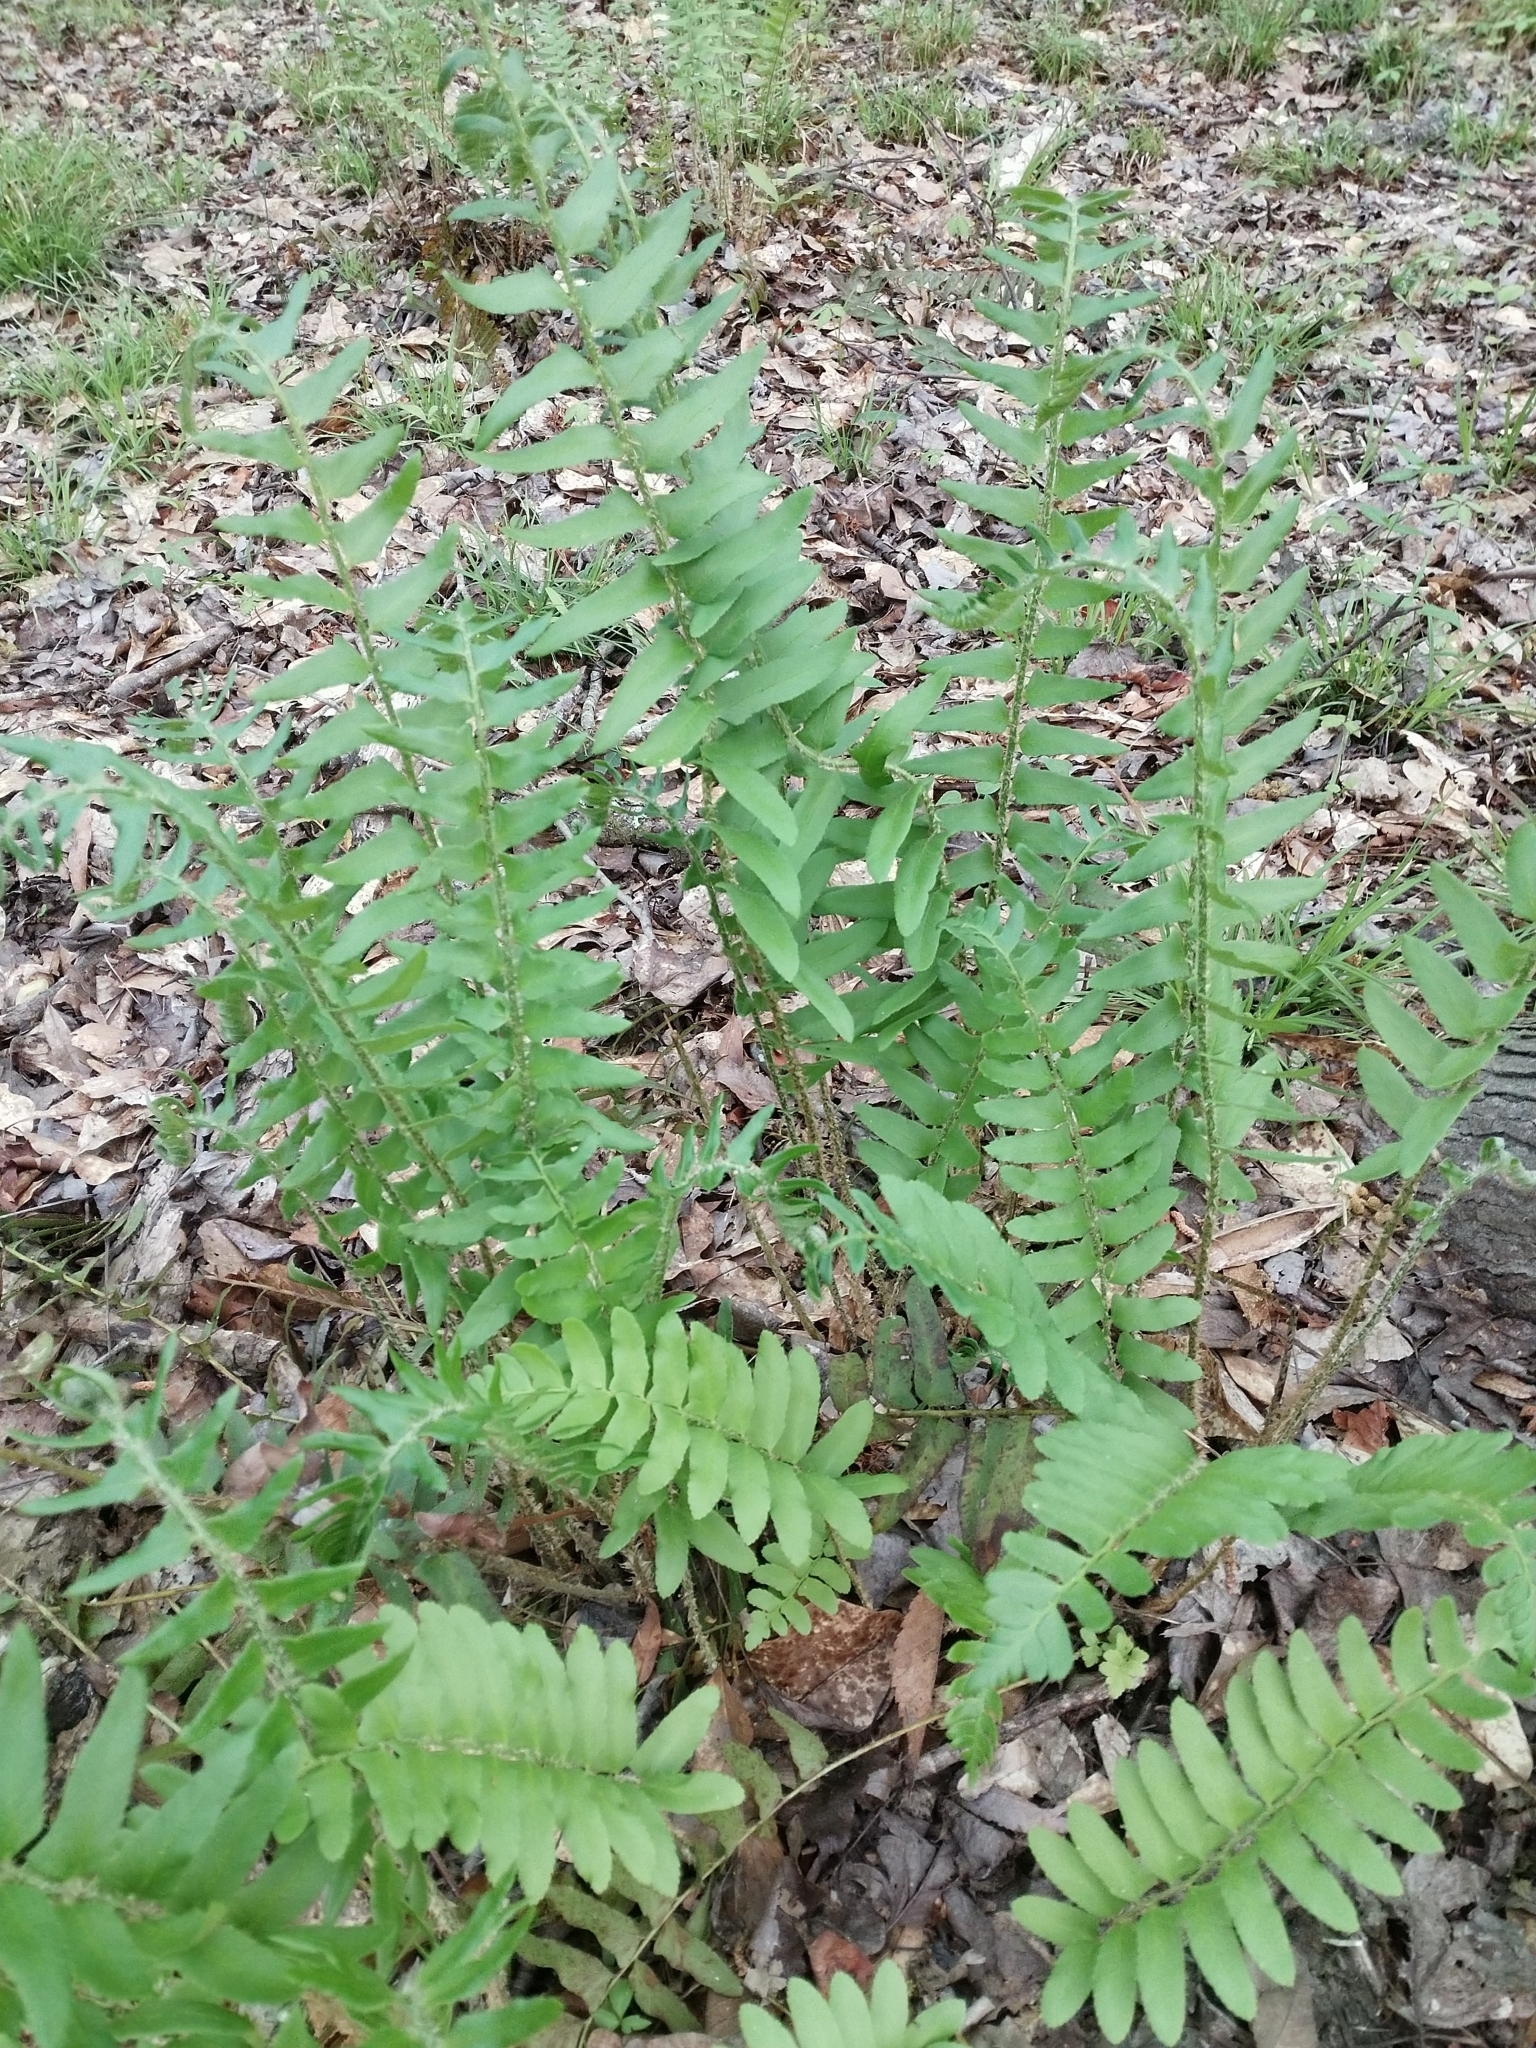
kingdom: Plantae
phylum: Tracheophyta
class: Polypodiopsida
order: Polypodiales
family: Dryopteridaceae
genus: Polystichum
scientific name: Polystichum acrostichoides
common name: Christmas fern
